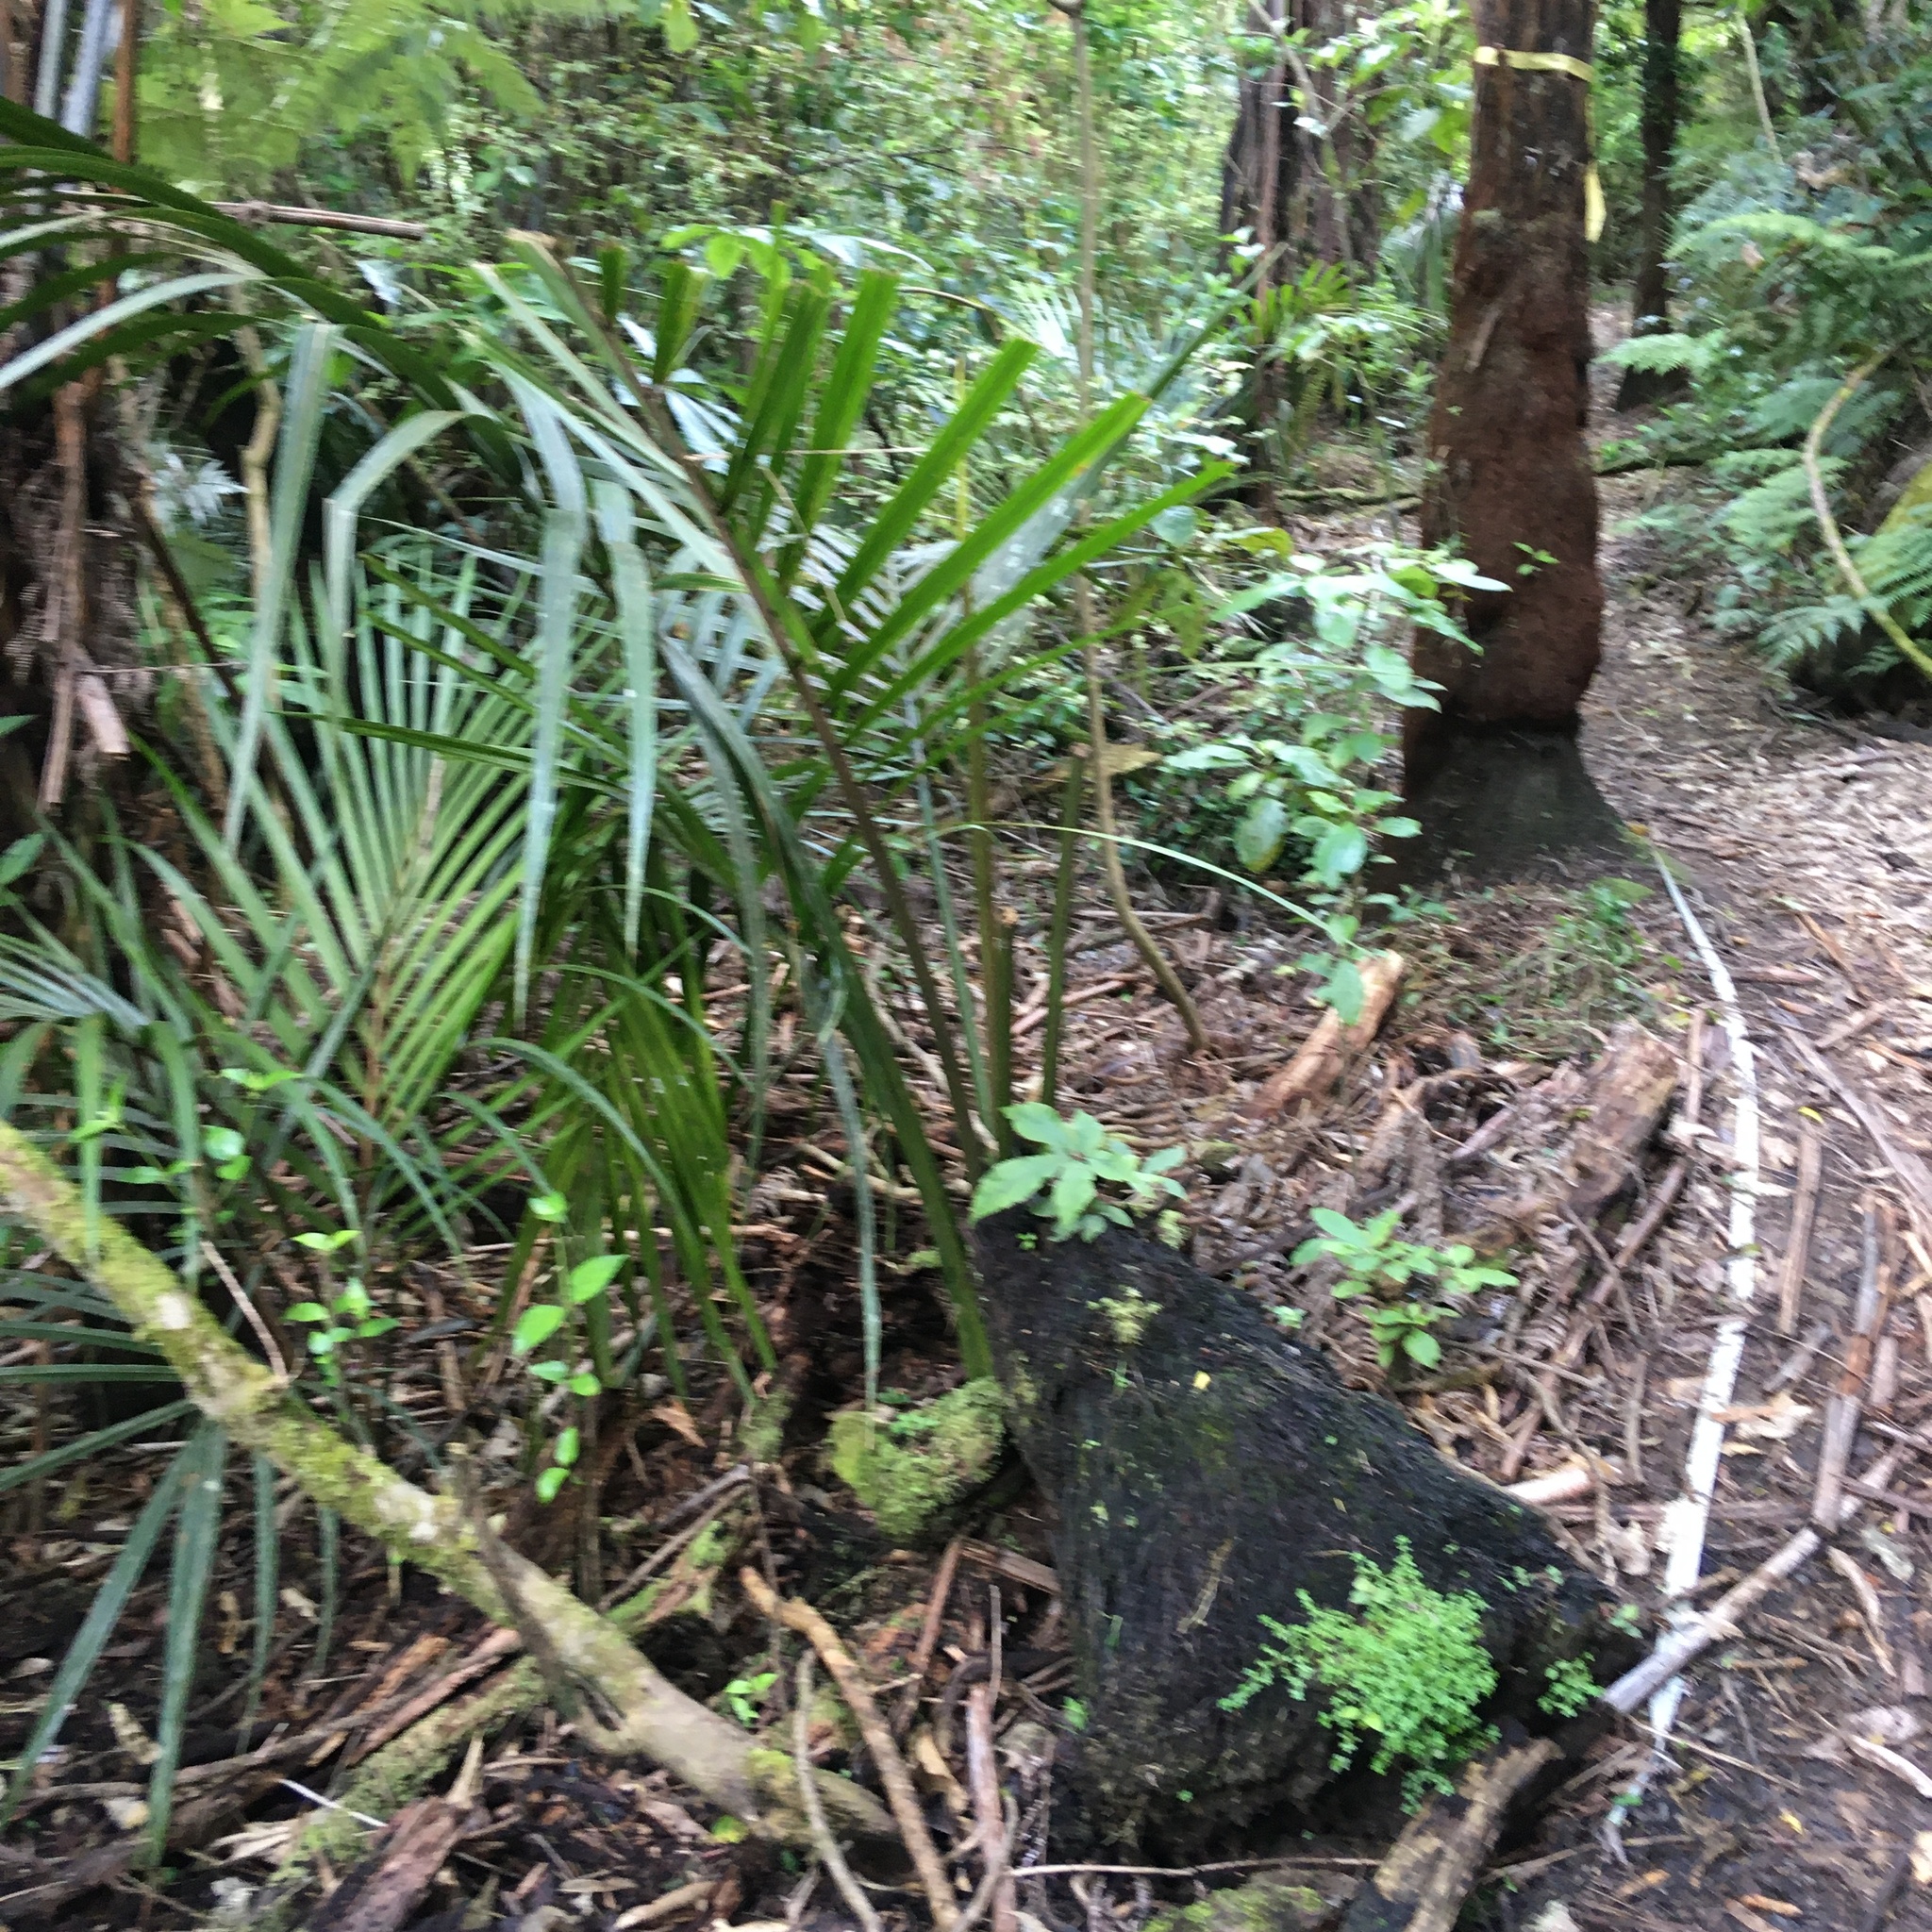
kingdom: Plantae
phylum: Tracheophyta
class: Magnoliopsida
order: Apiales
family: Araliaceae
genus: Schefflera
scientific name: Schefflera digitata
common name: Pate
